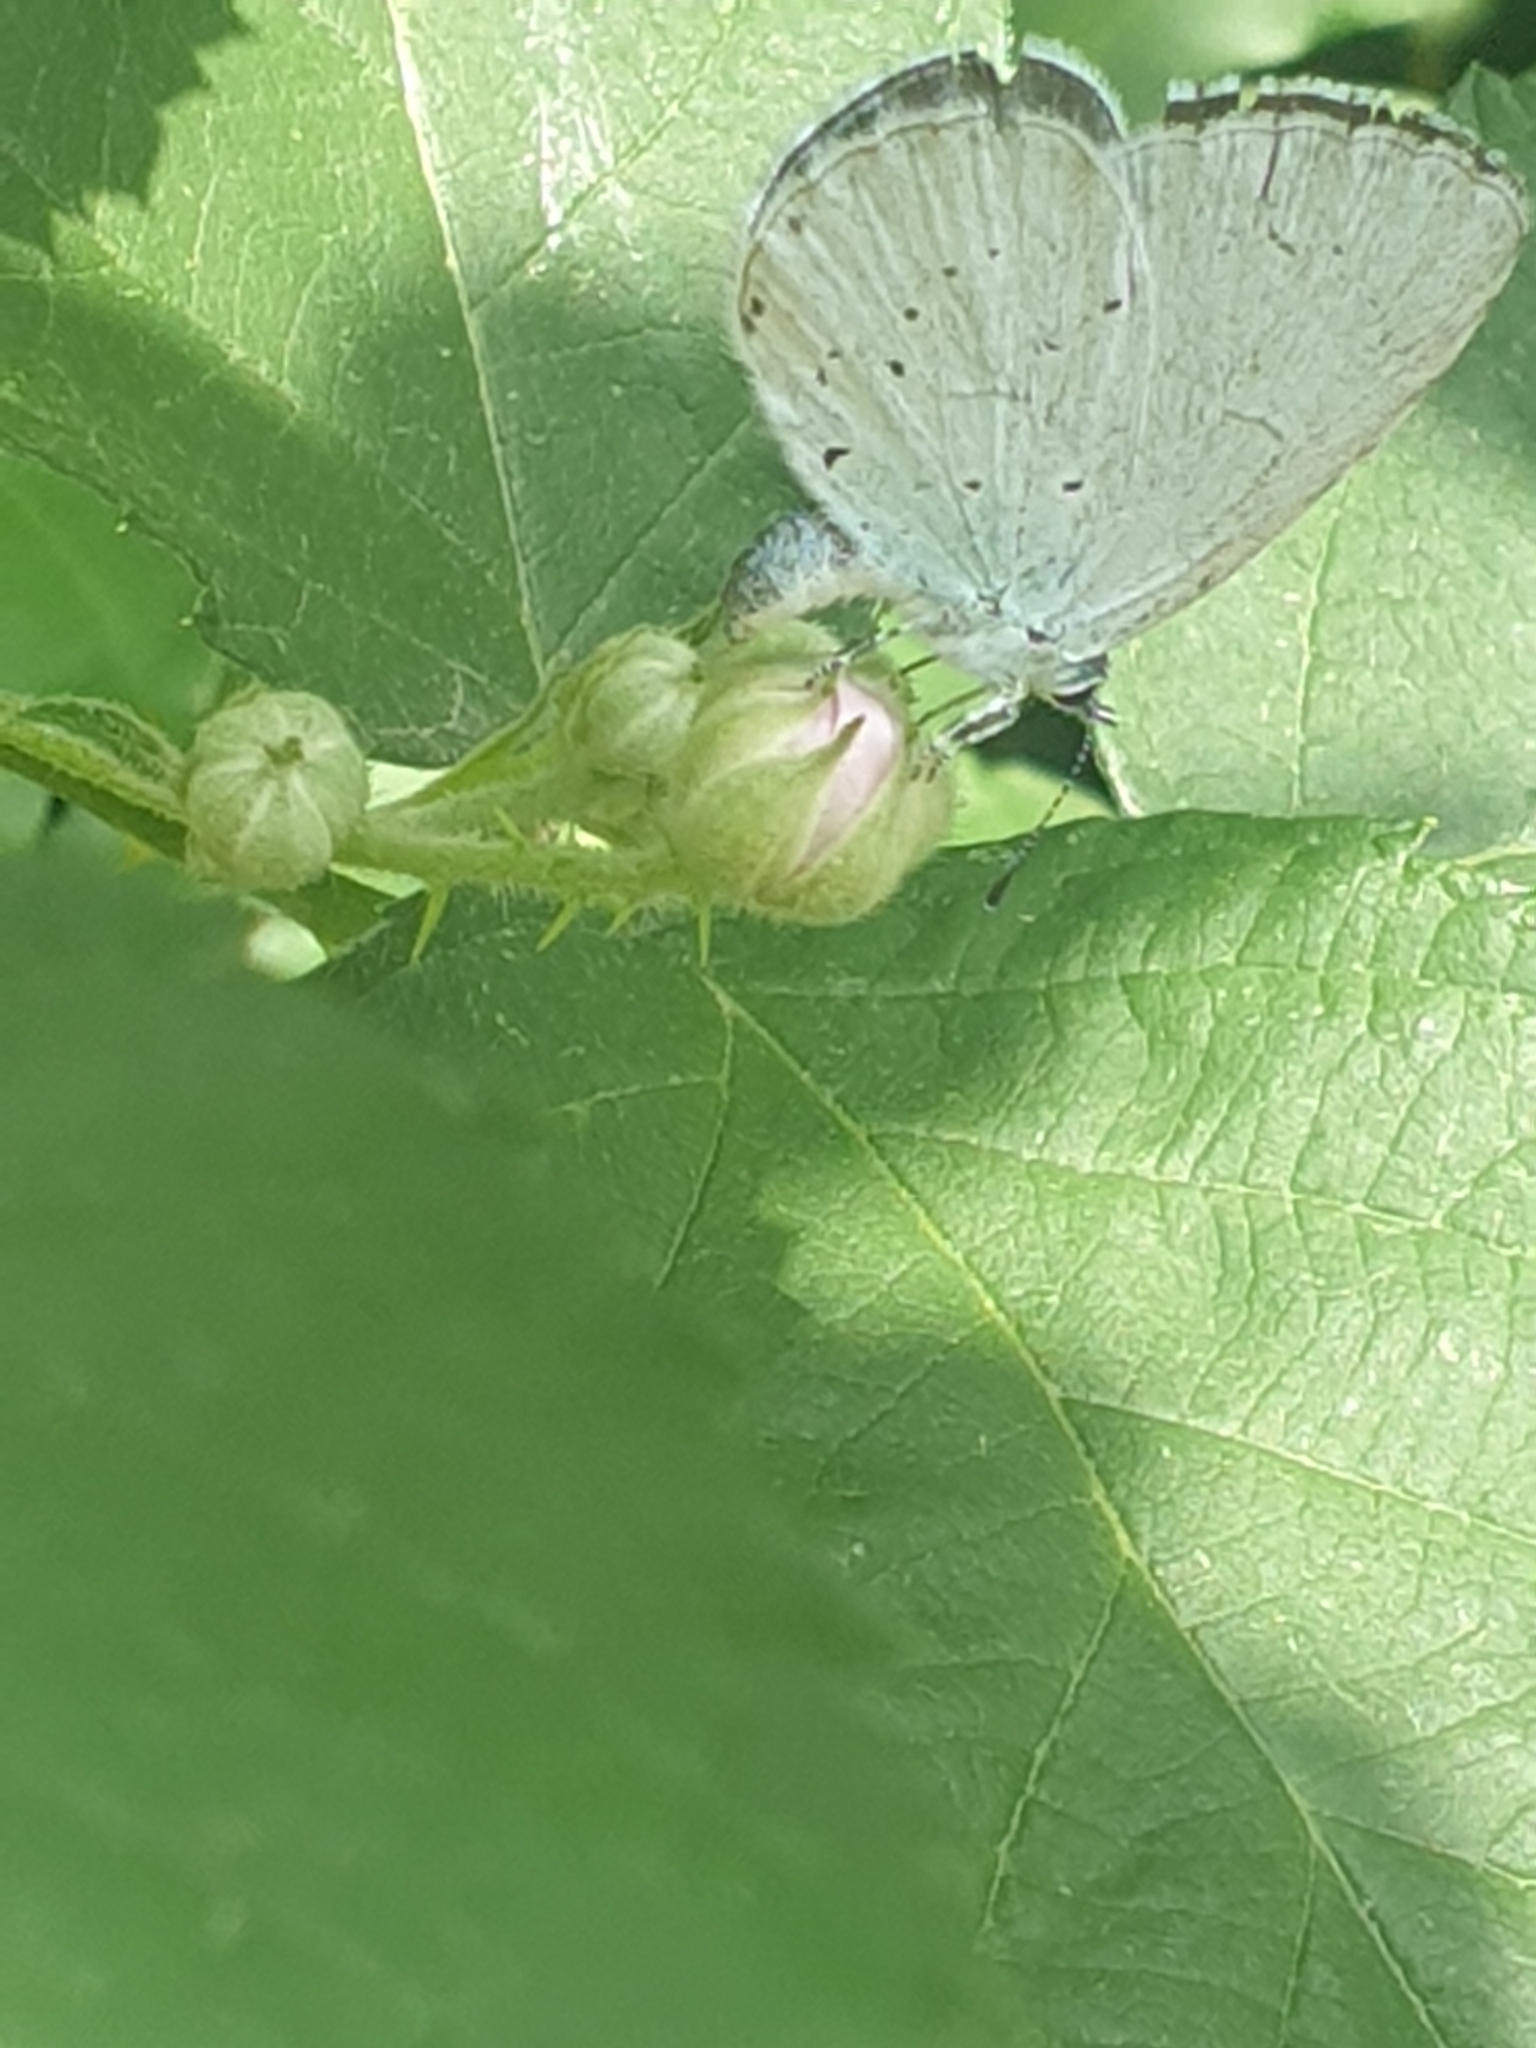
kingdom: Animalia
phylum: Arthropoda
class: Insecta
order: Lepidoptera
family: Lycaenidae
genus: Celastrina
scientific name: Celastrina argiolus
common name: Holly blue
